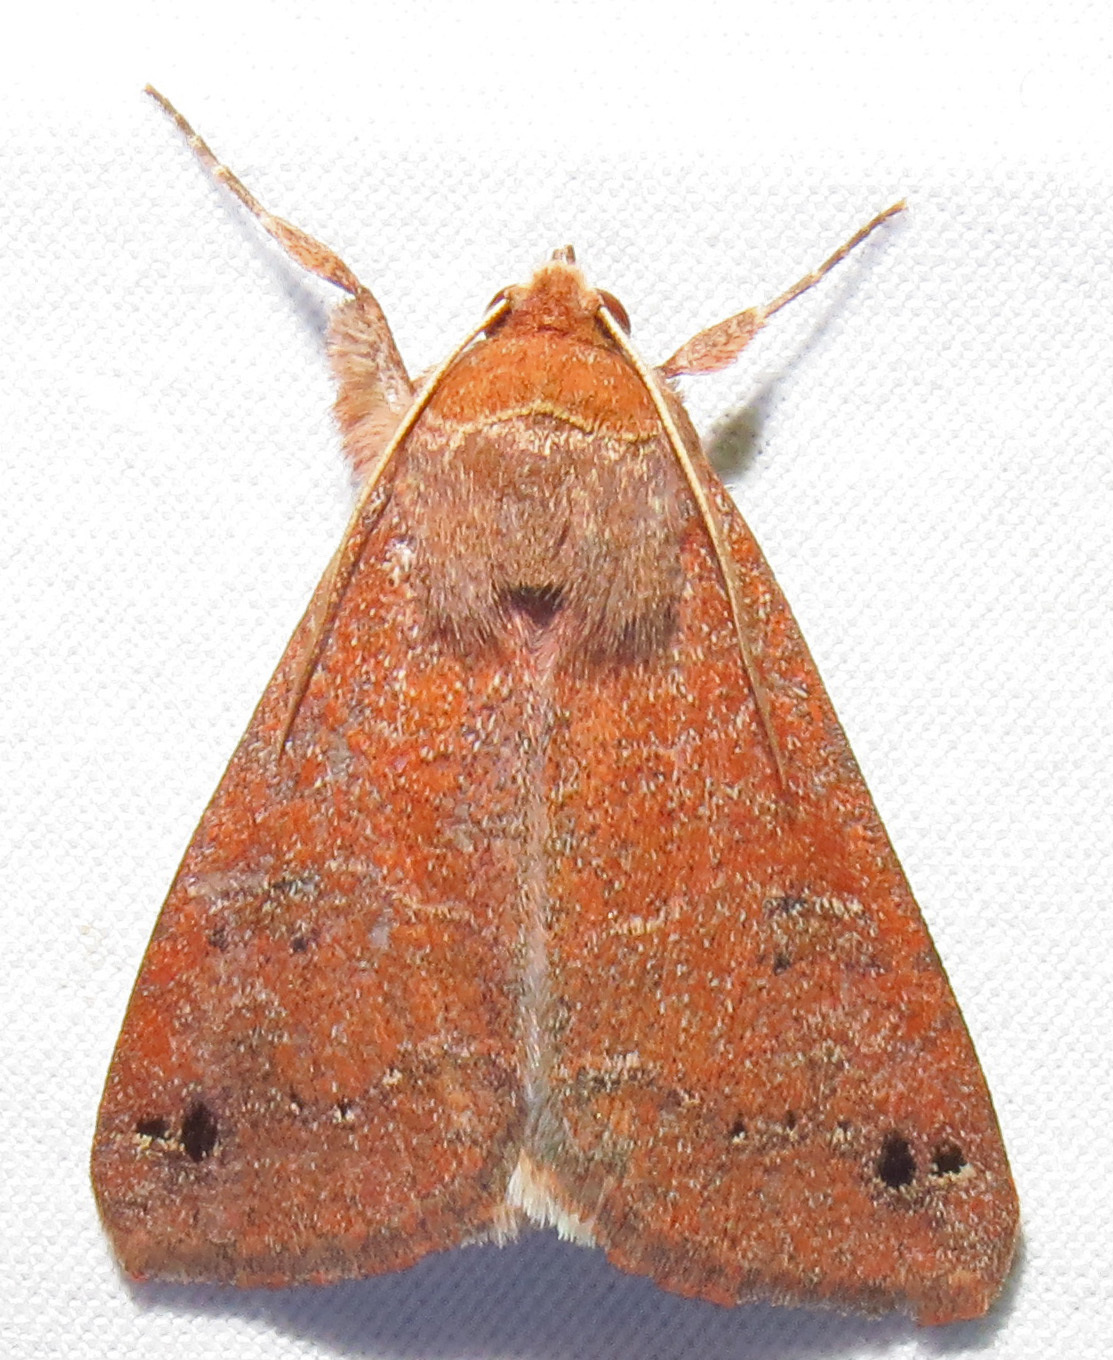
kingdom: Animalia
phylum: Arthropoda
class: Insecta
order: Lepidoptera
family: Erebidae
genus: Cissusa
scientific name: Cissusa spadix
